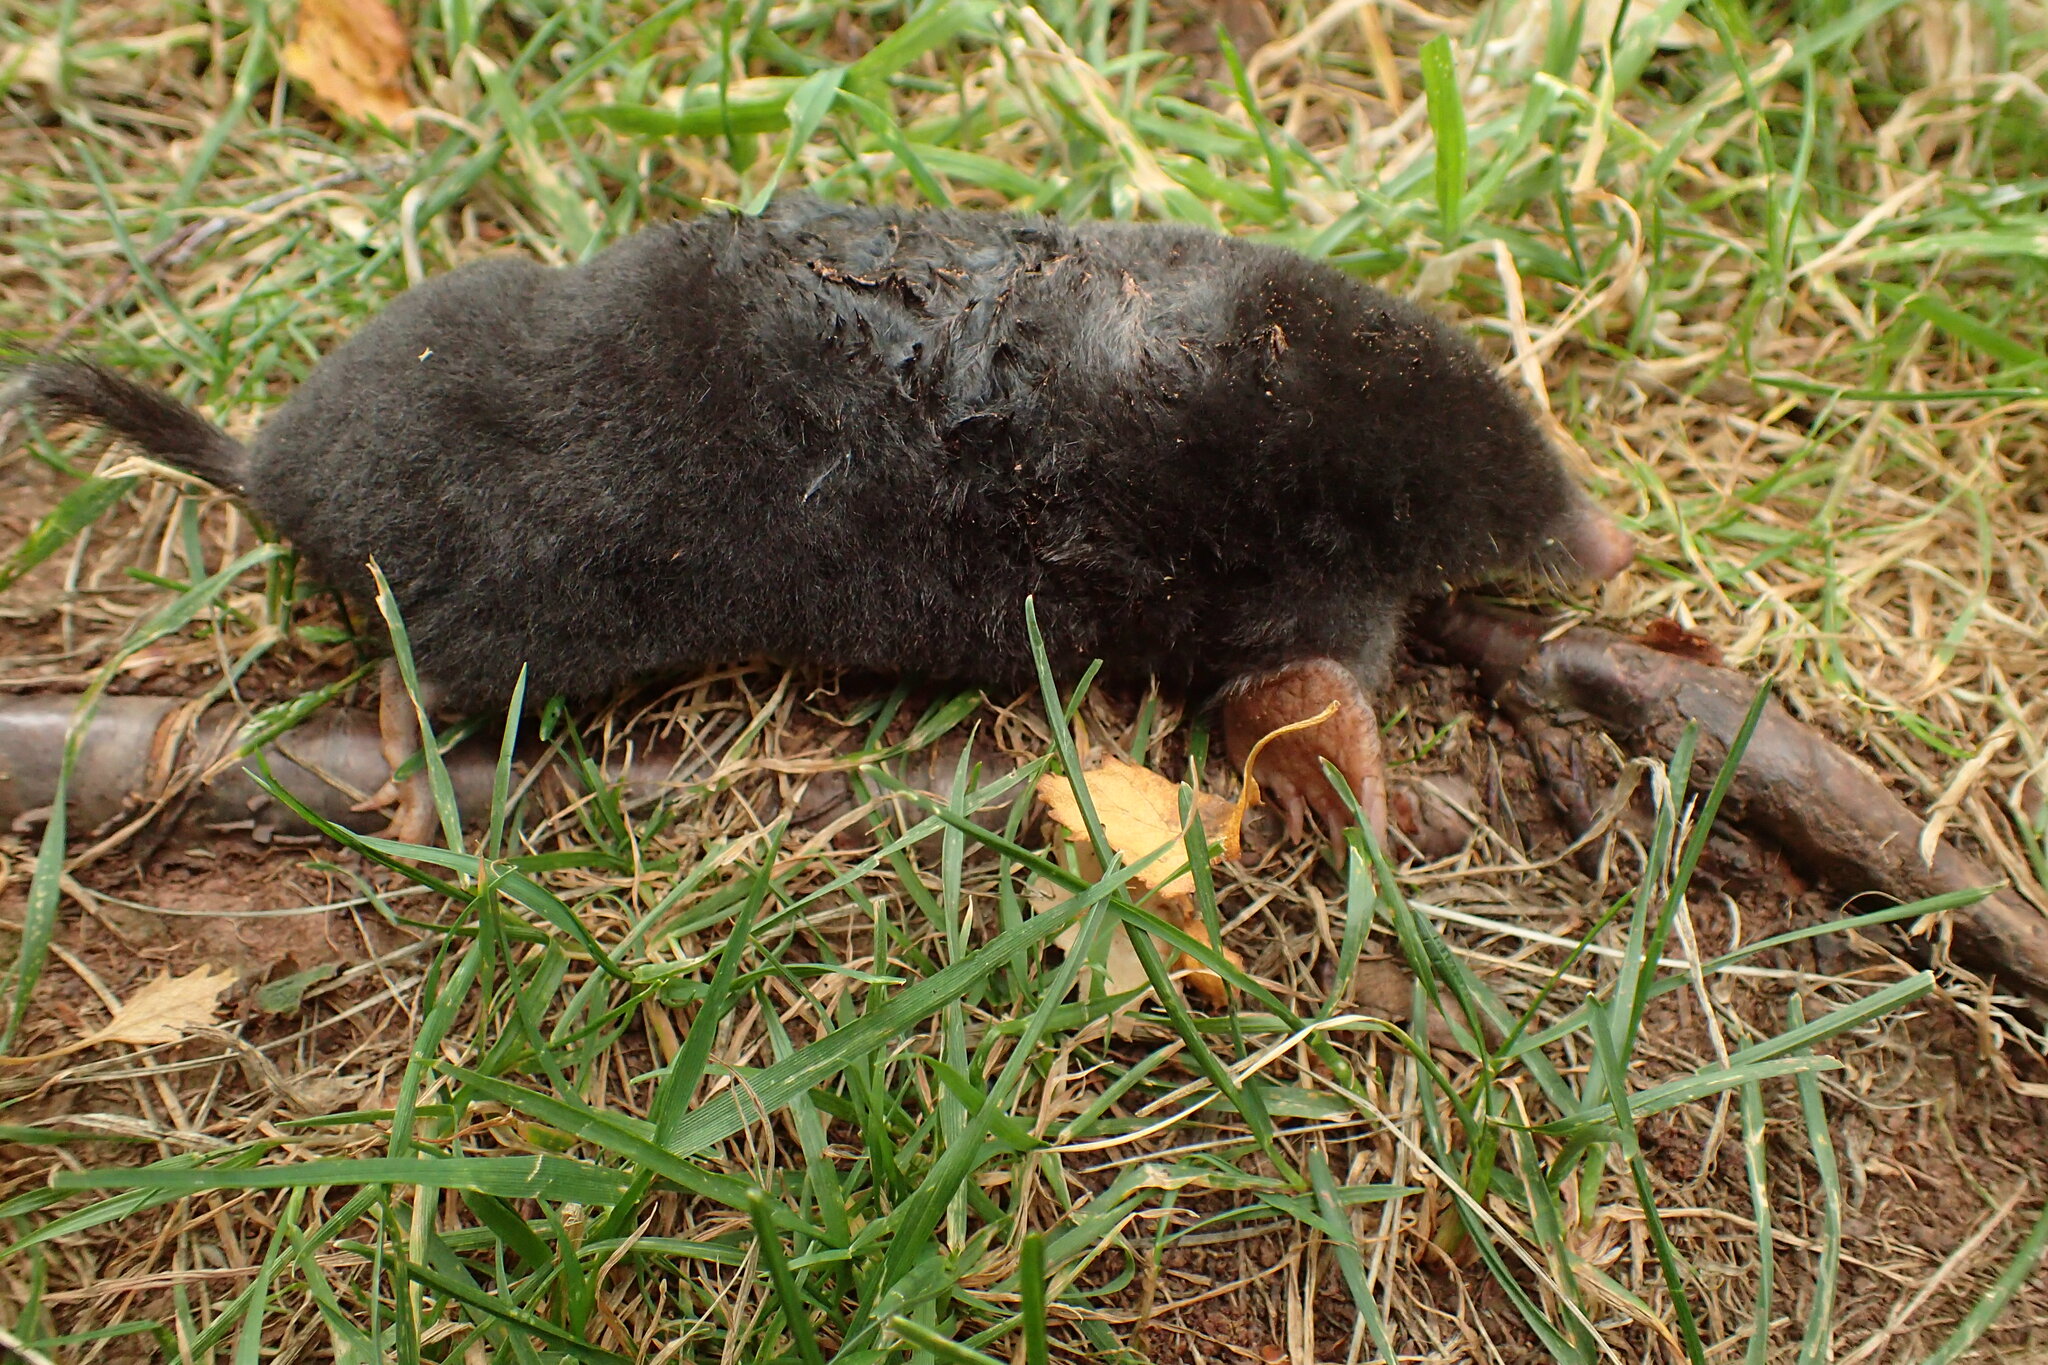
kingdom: Animalia
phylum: Chordata
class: Mammalia
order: Soricomorpha
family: Talpidae
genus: Talpa
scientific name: Talpa europaea
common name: European mole
